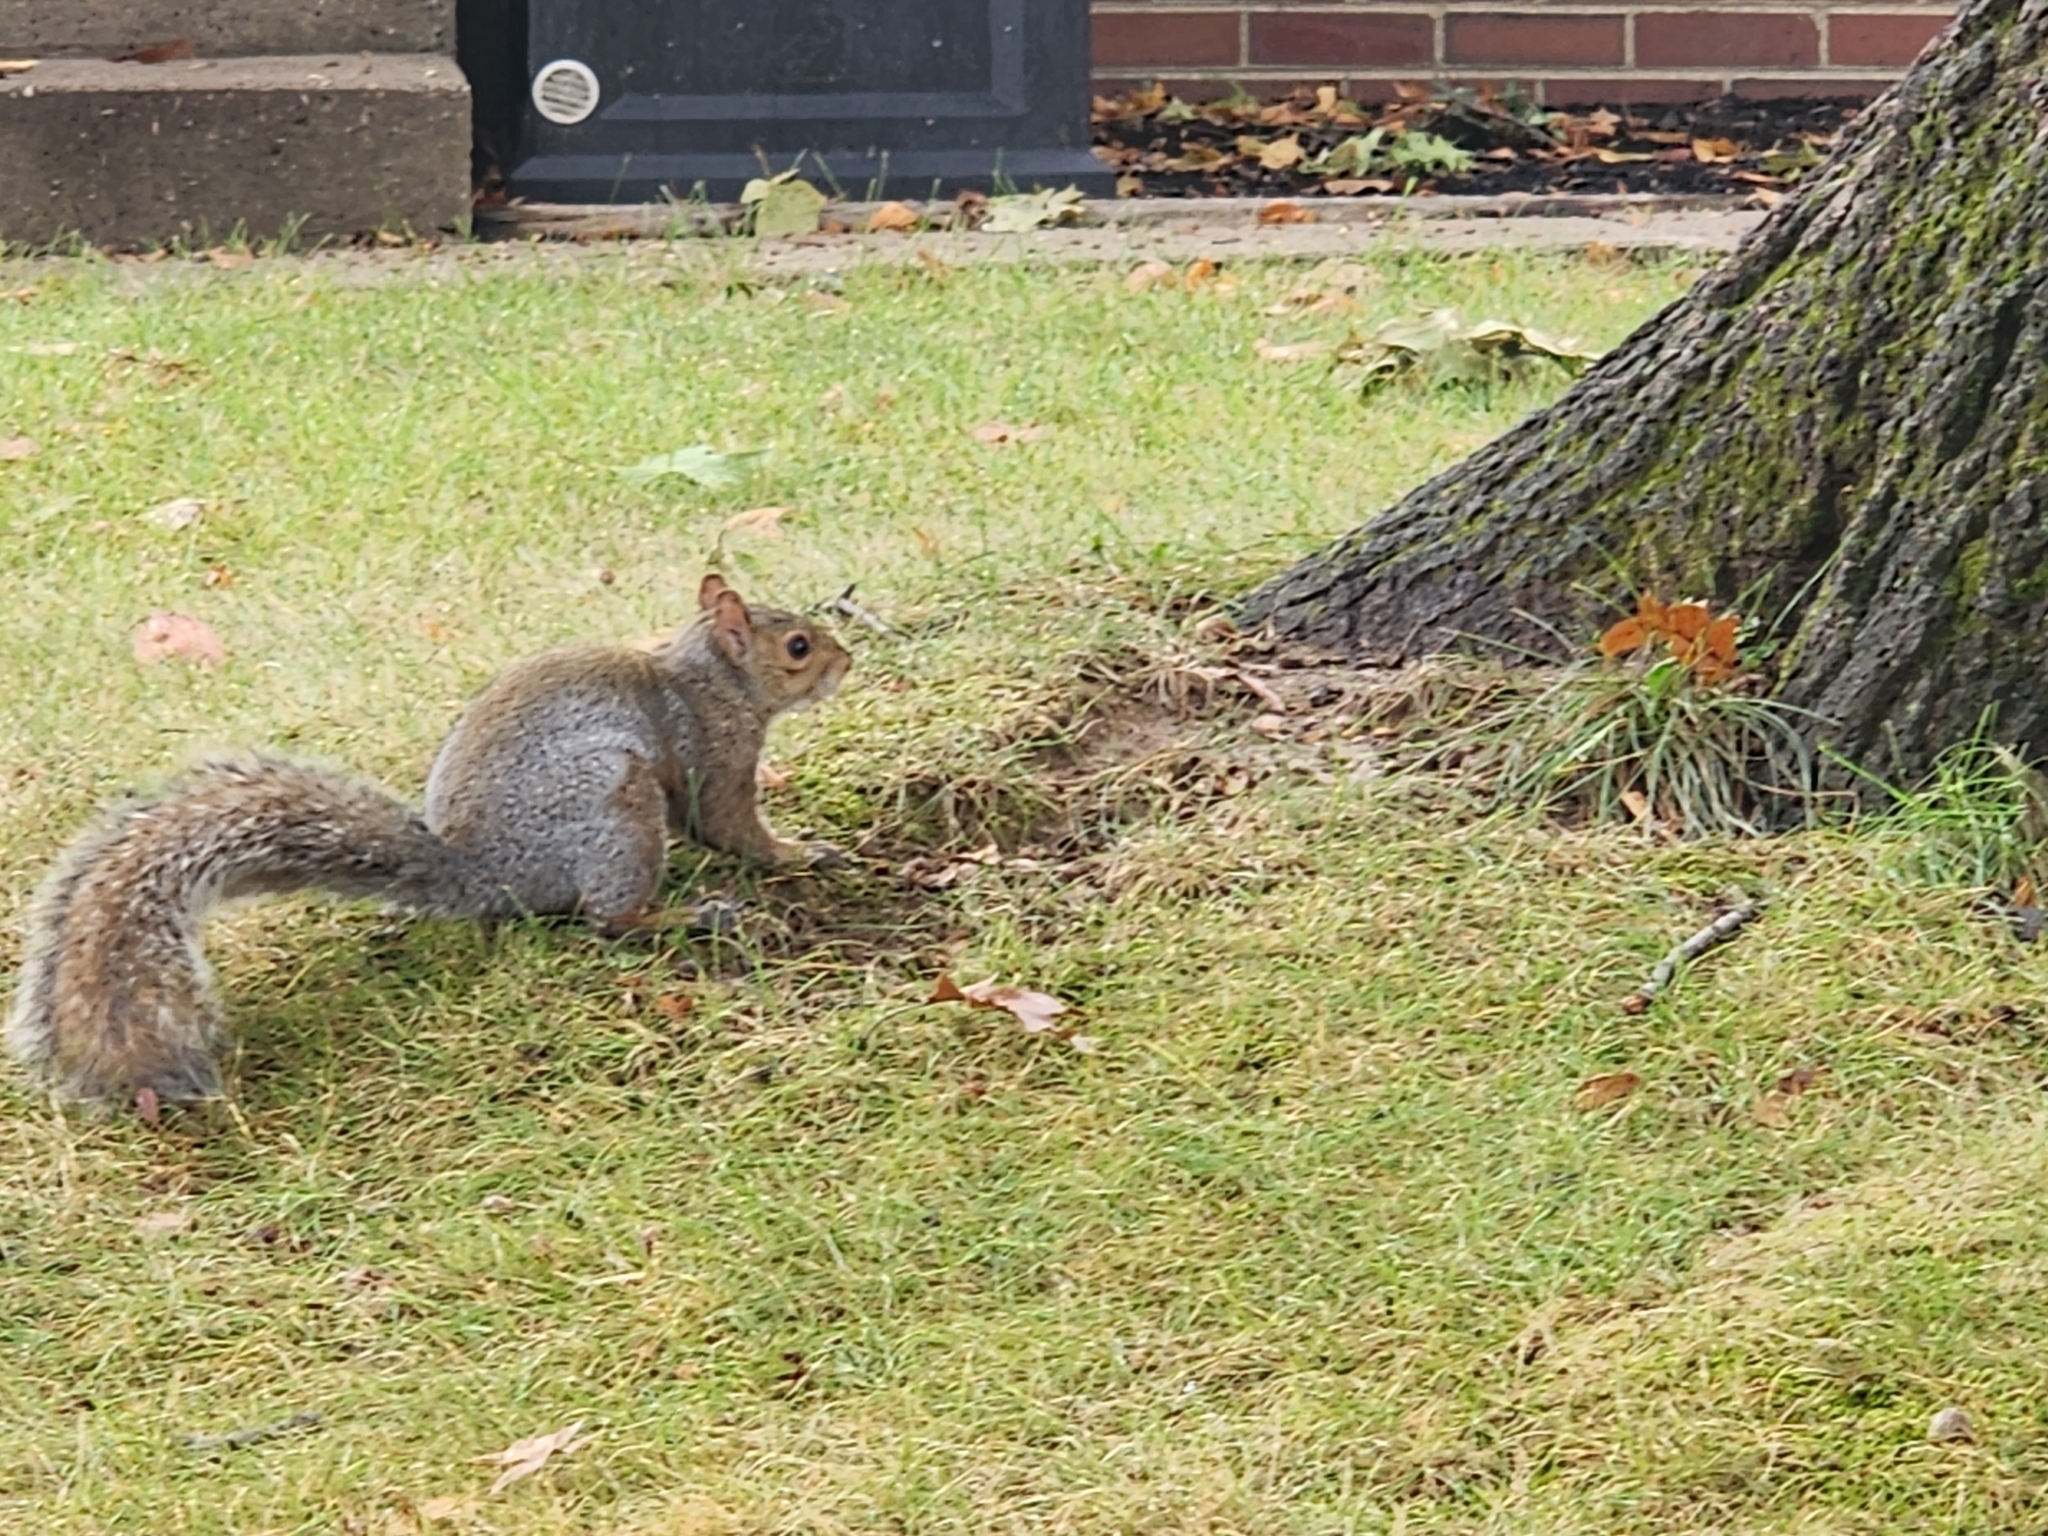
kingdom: Animalia
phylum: Chordata
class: Mammalia
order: Rodentia
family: Sciuridae
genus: Sciurus
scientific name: Sciurus carolinensis
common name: Eastern gray squirrel
